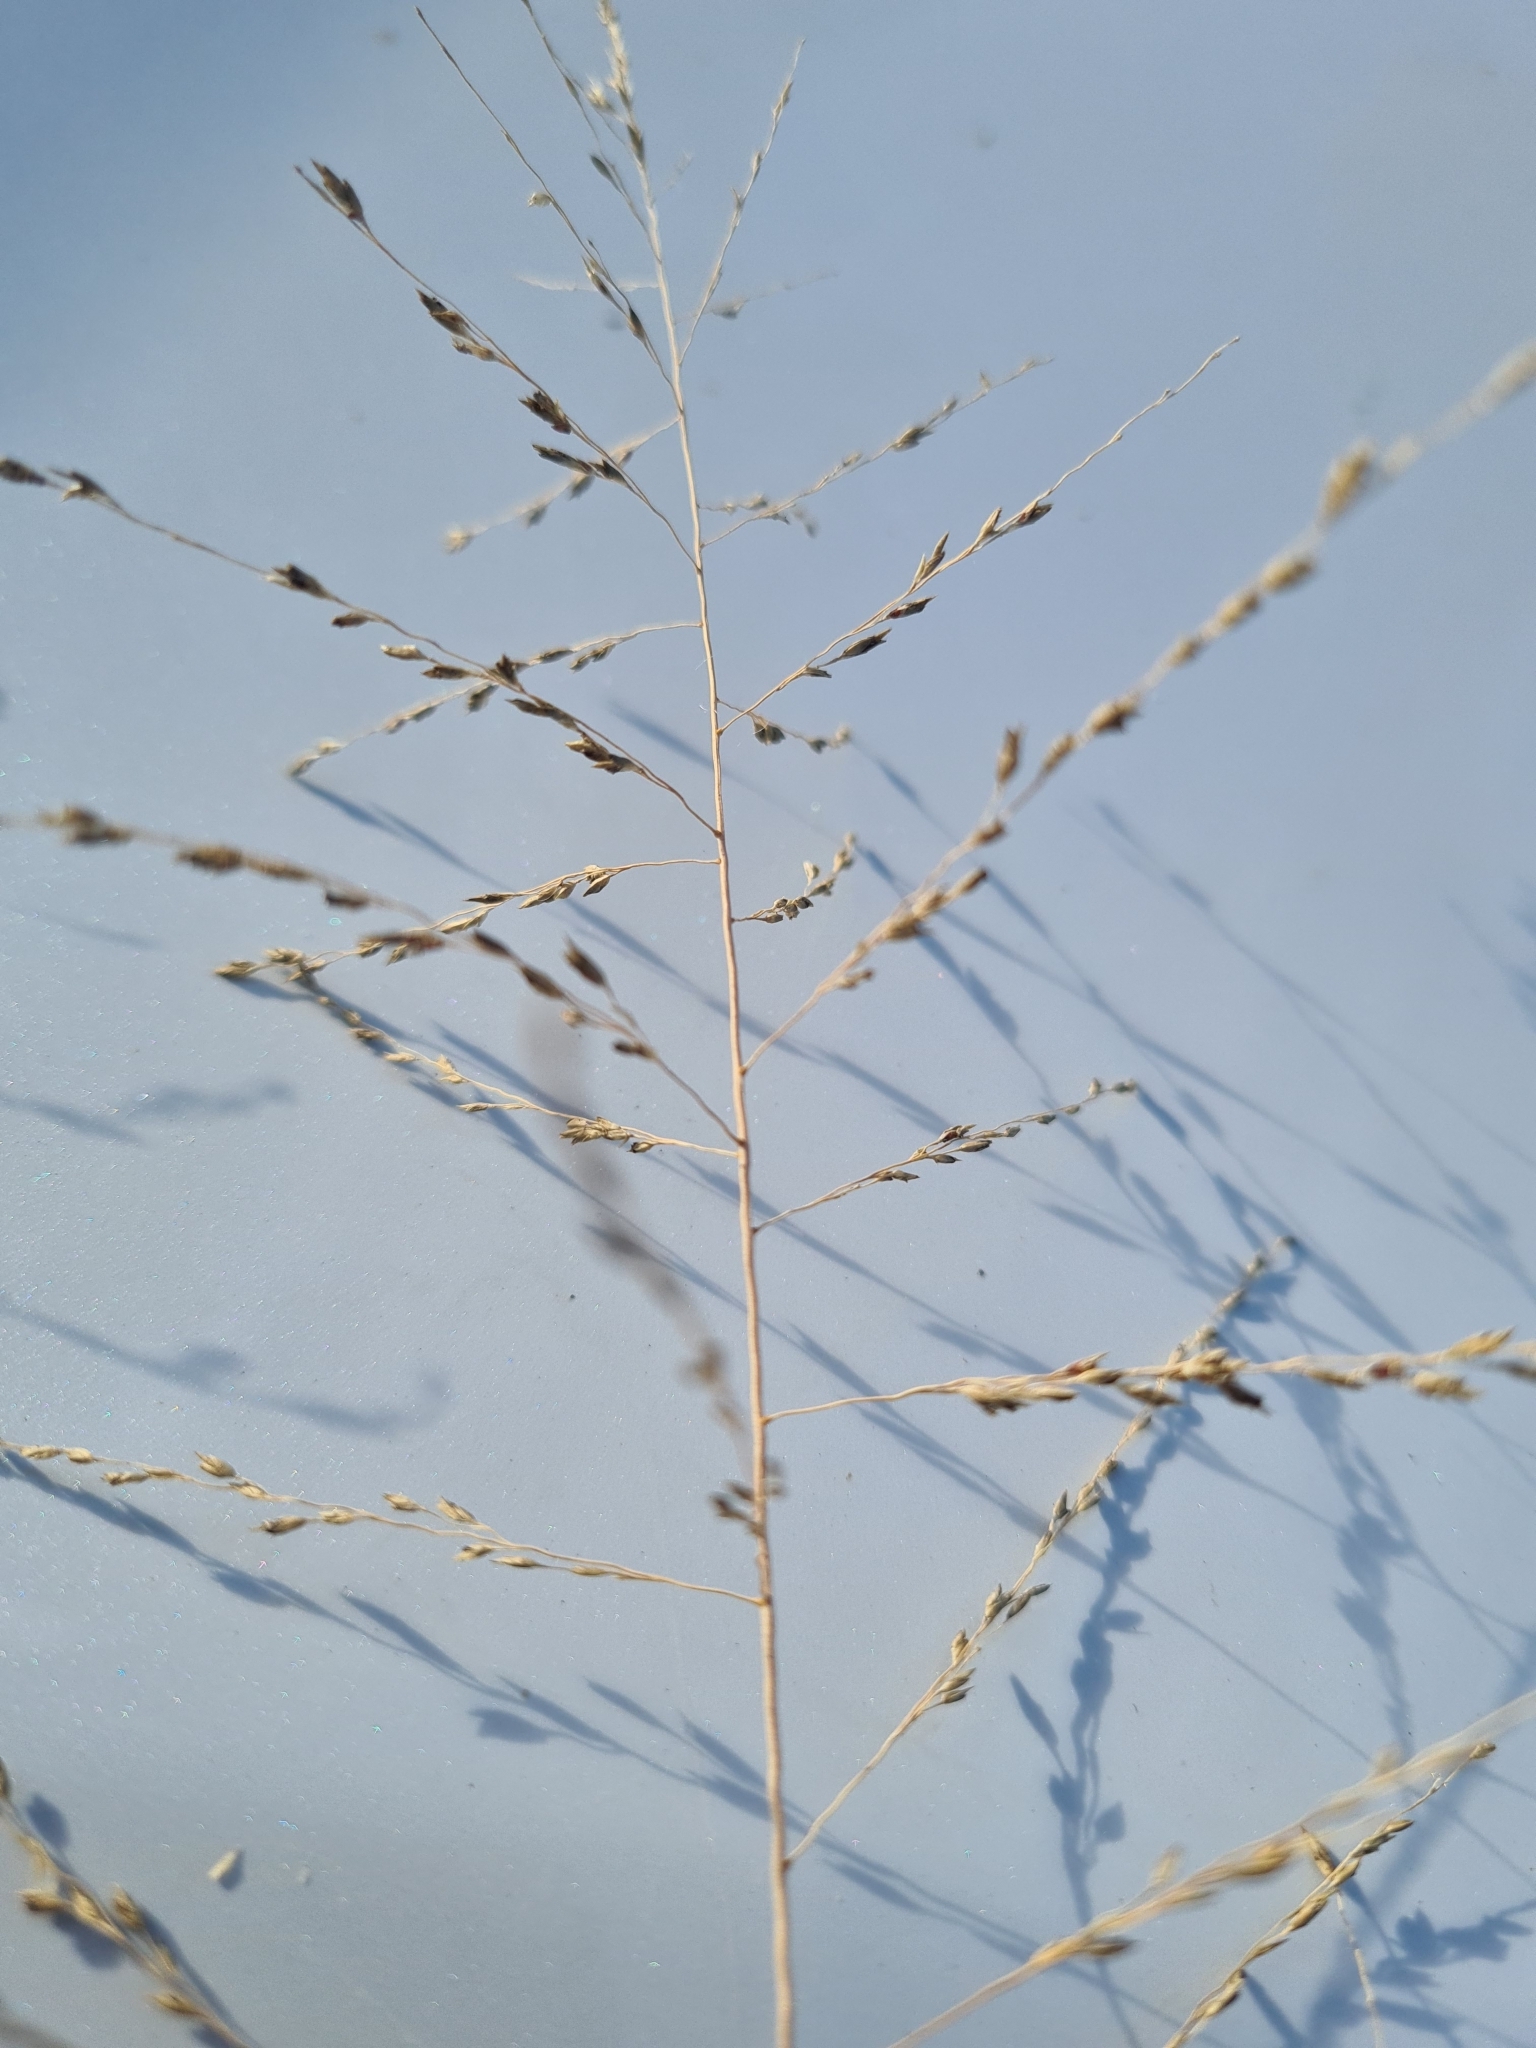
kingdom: Plantae
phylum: Tracheophyta
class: Liliopsida
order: Poales
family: Poaceae
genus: Eragrostis
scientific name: Eragrostis curvula
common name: African love-grass
